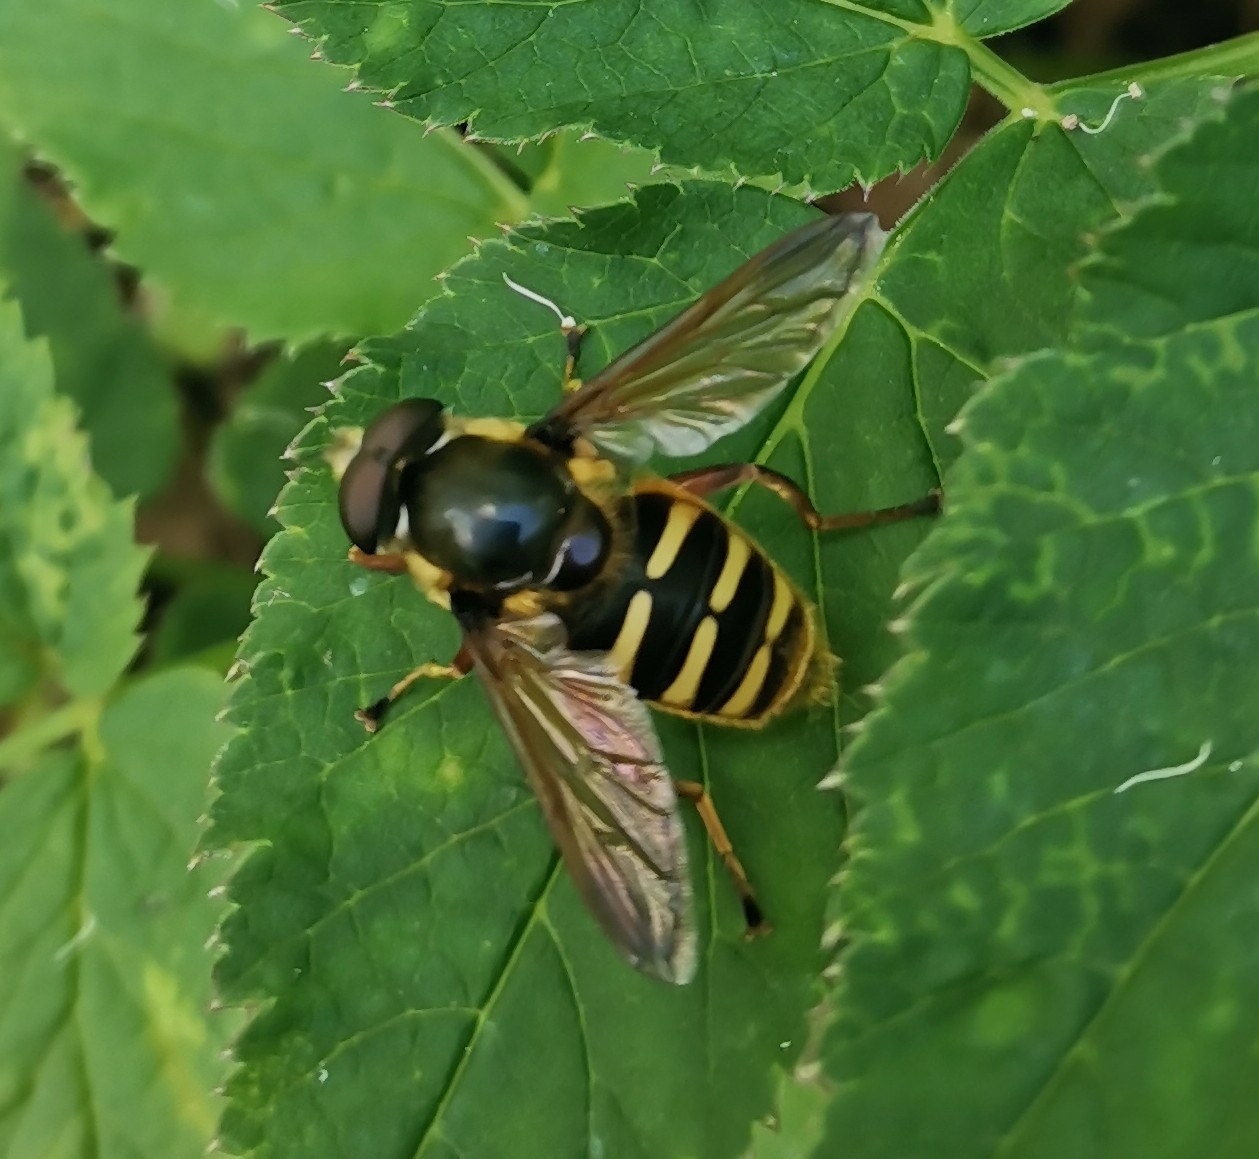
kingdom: Animalia
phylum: Arthropoda
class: Insecta
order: Diptera
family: Syrphidae
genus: Sericomyia
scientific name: Sericomyia silentis
